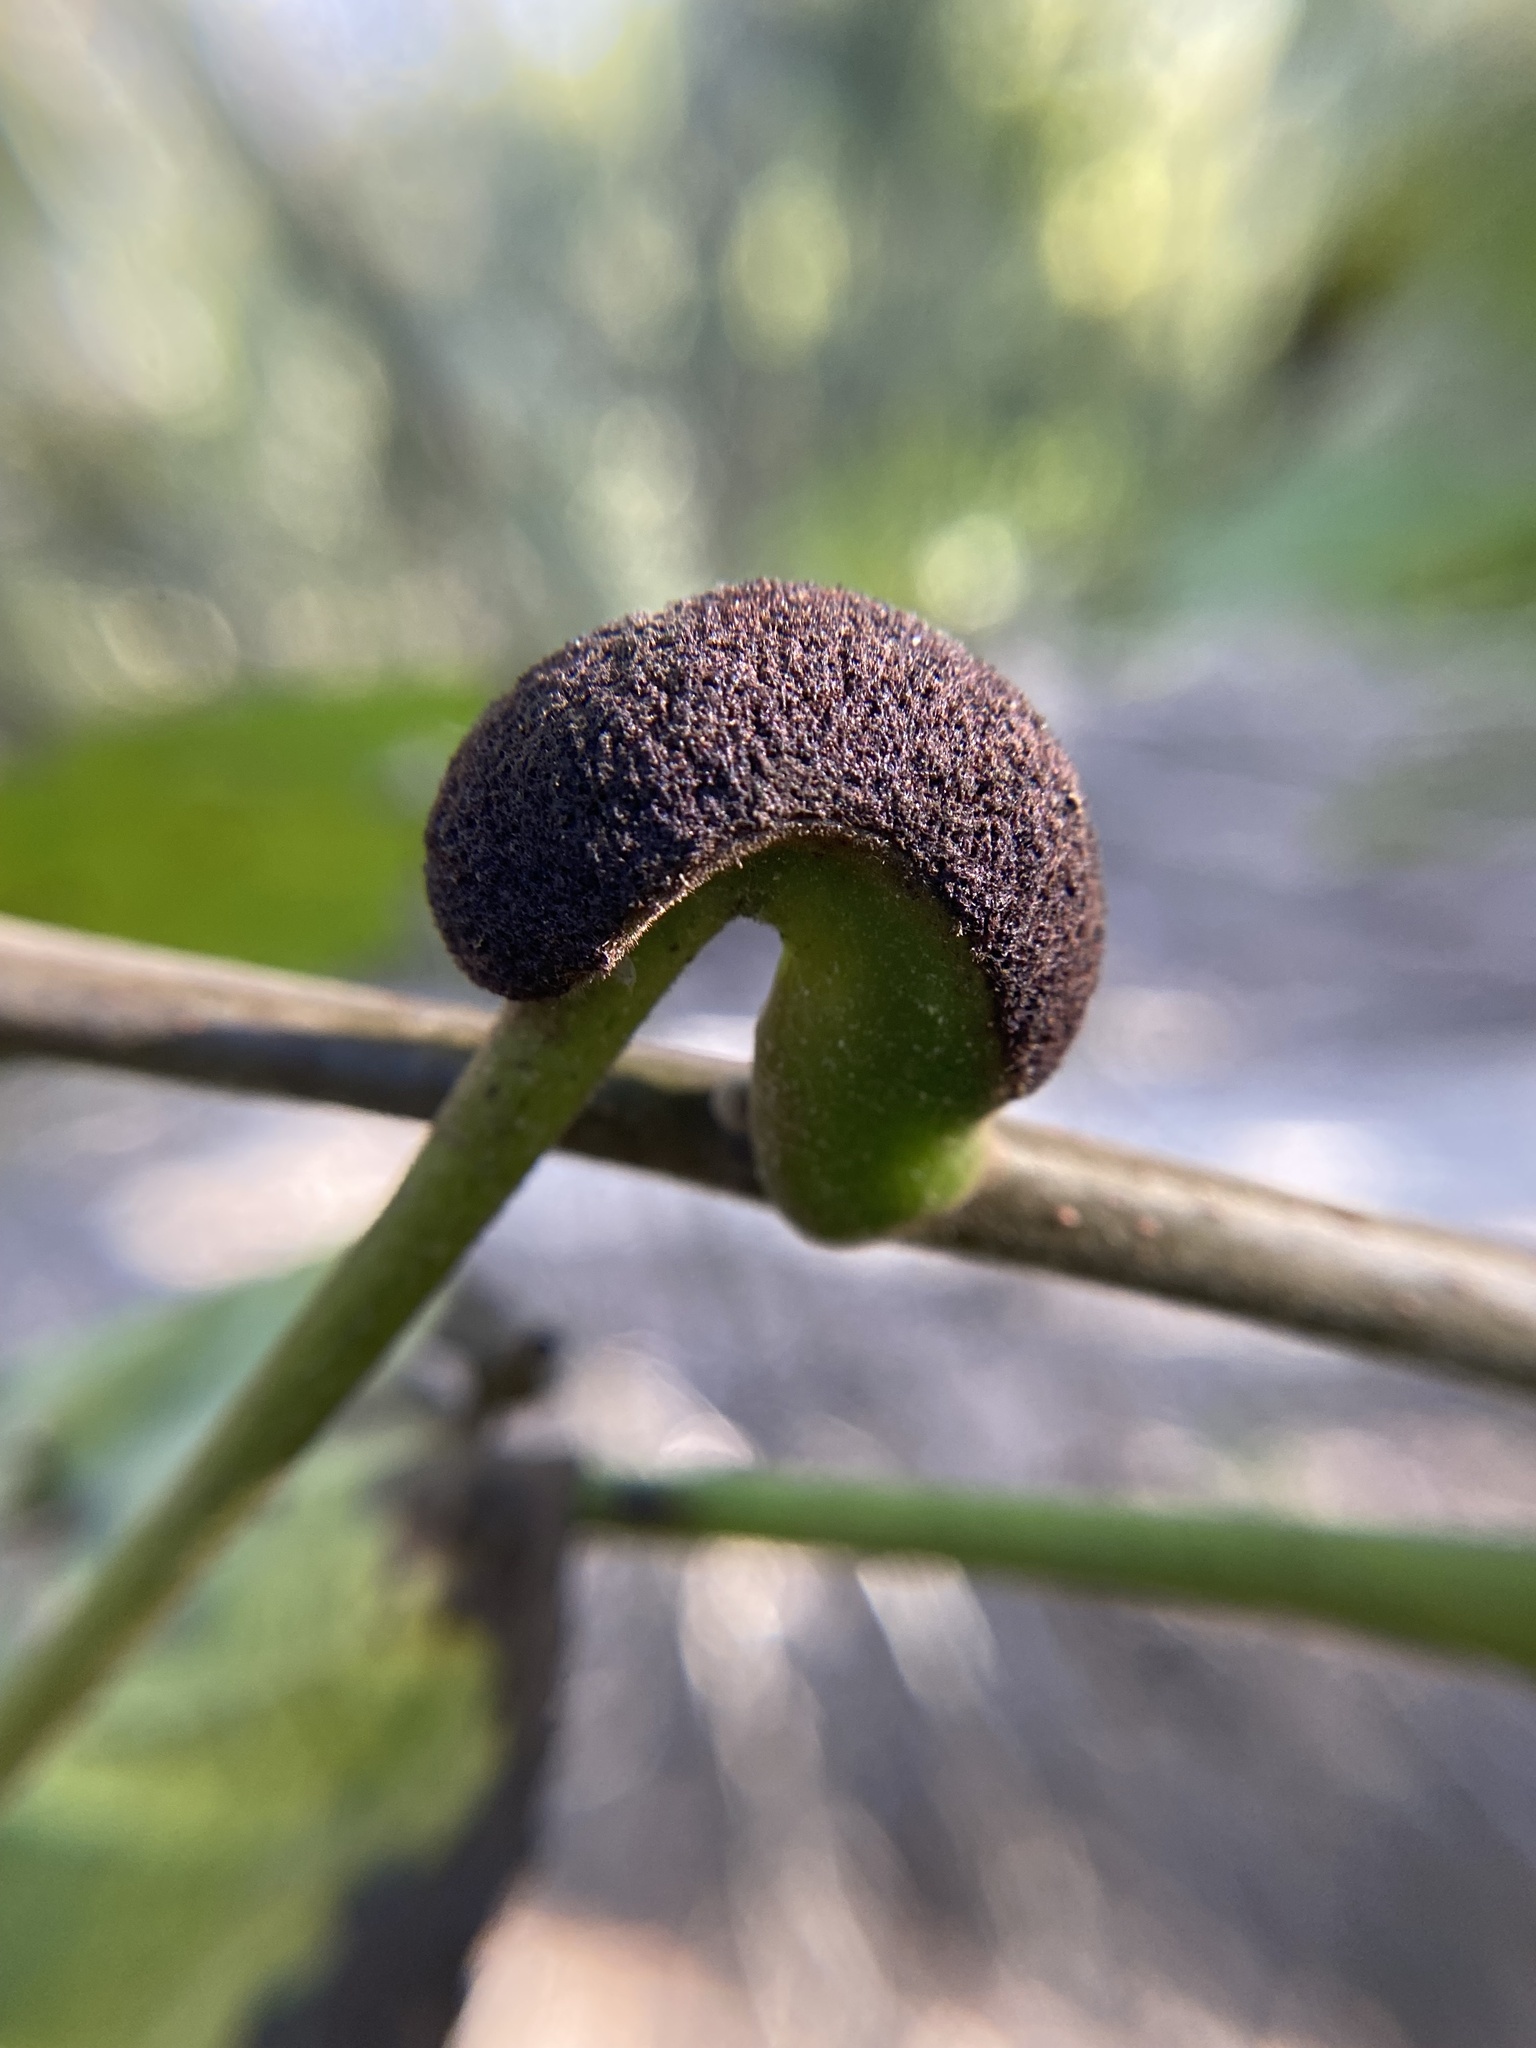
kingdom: Animalia
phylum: Arthropoda
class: Arachnida
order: Trombidiformes
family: Eriophyidae
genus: Aceria
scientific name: Aceria
